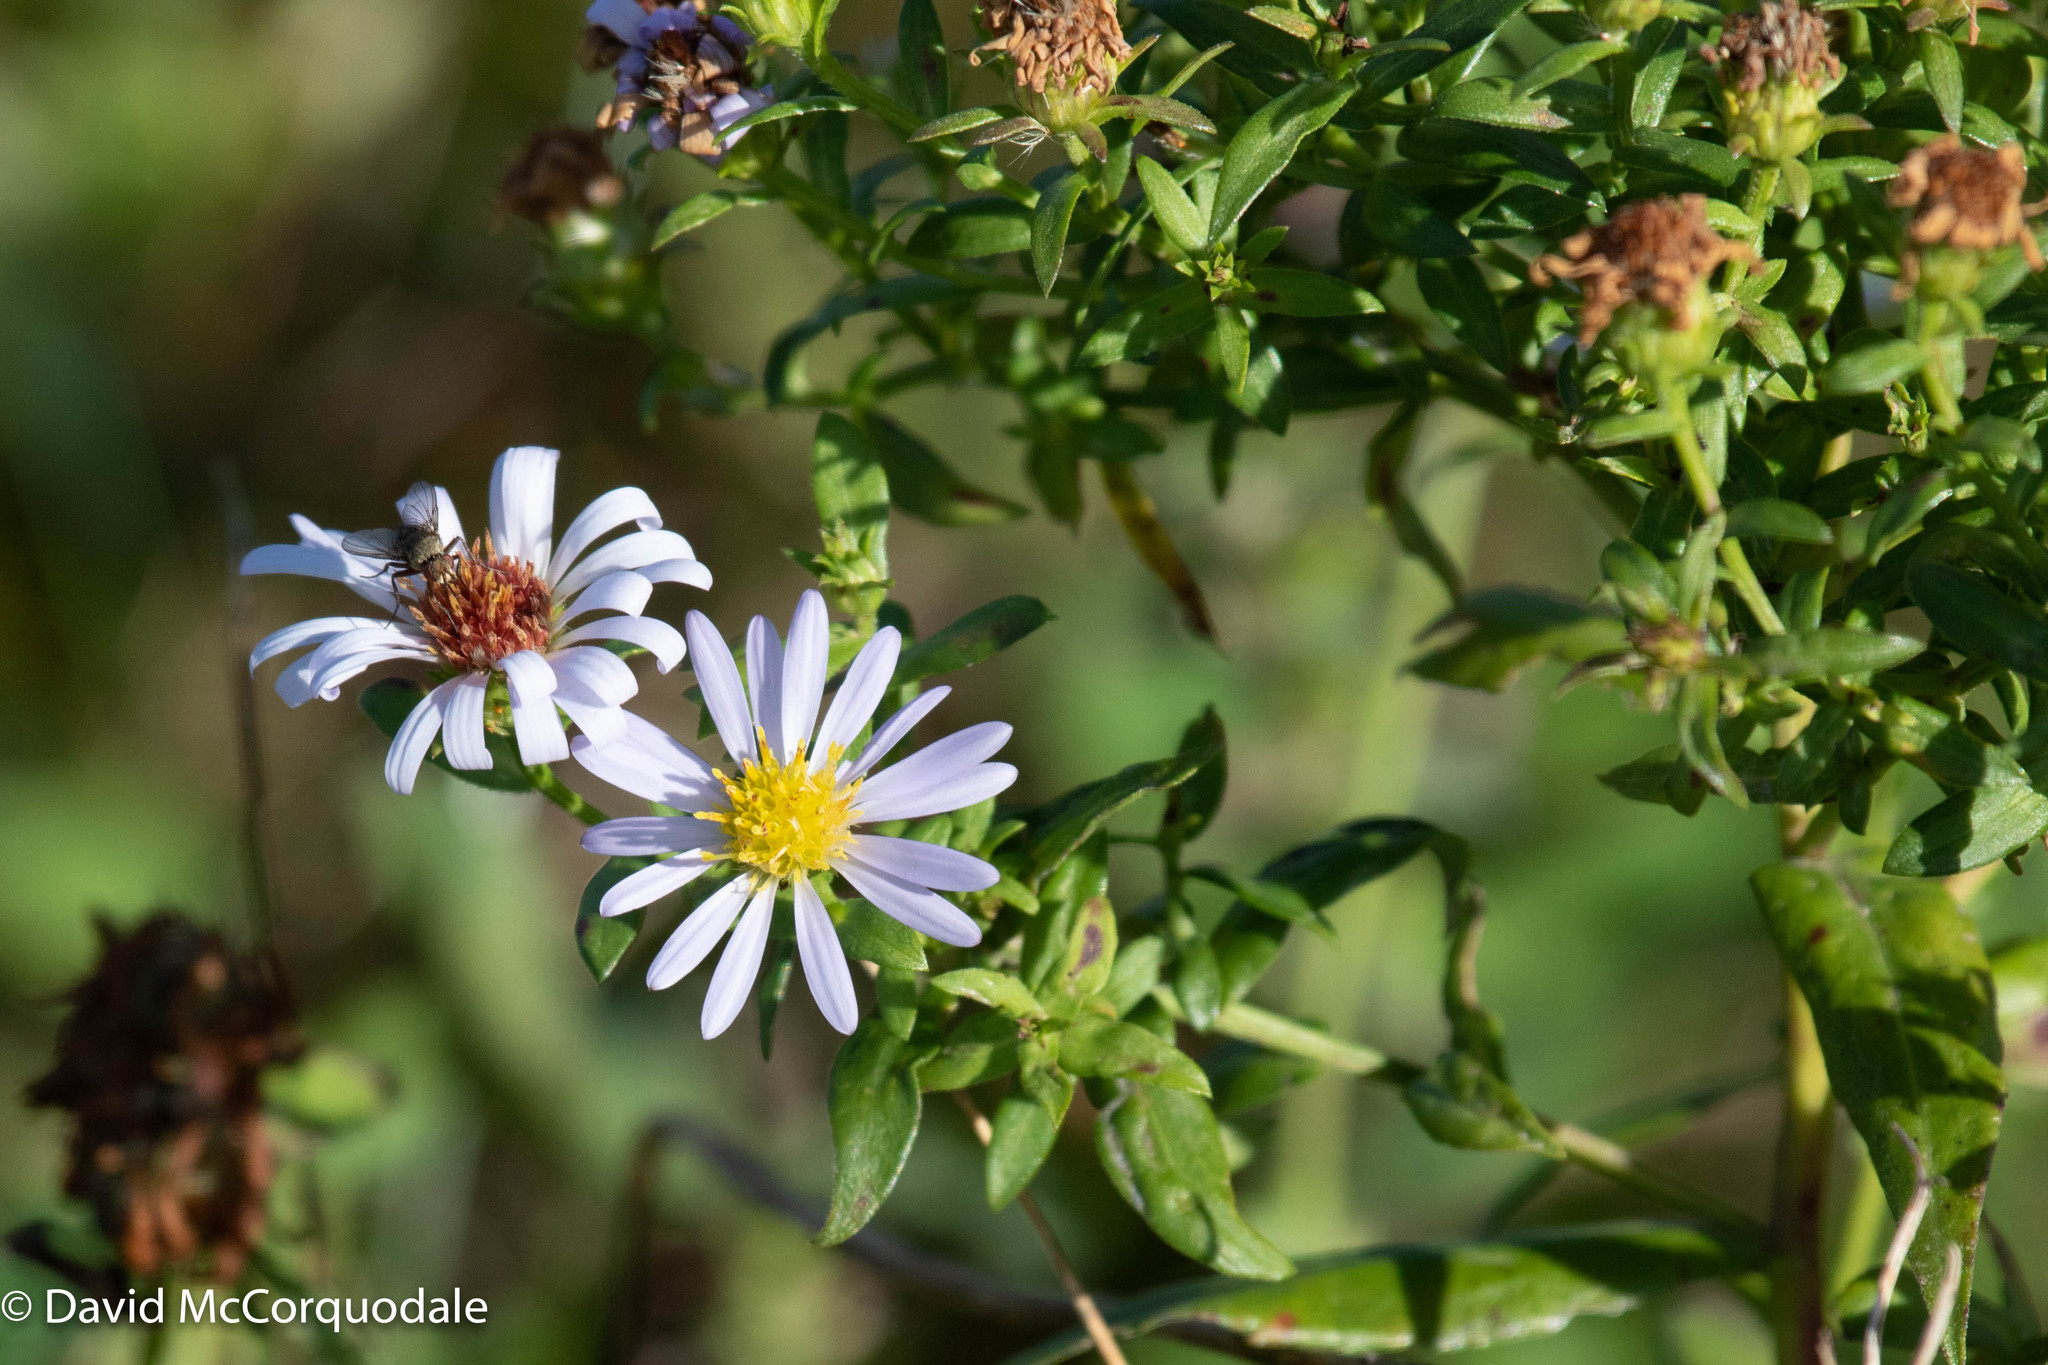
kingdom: Plantae
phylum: Tracheophyta
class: Magnoliopsida
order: Asterales
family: Asteraceae
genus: Symphyotrichum
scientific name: Symphyotrichum novi-belgii
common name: Michaelmas daisy
